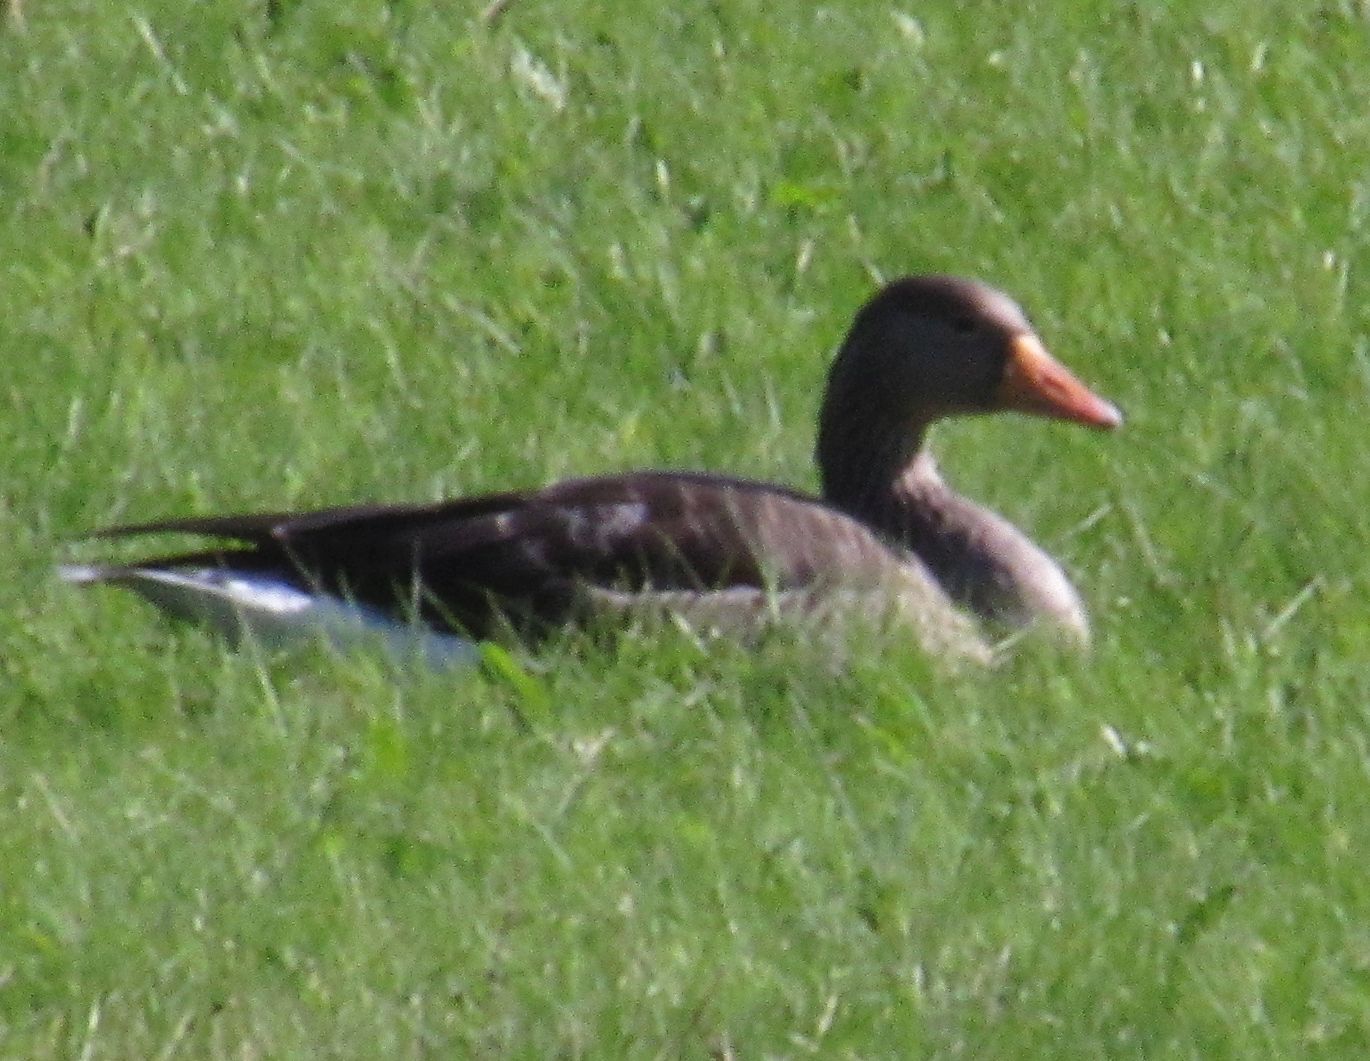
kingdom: Animalia
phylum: Chordata
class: Aves
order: Anseriformes
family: Anatidae
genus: Anser
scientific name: Anser anser
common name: Greylag goose
